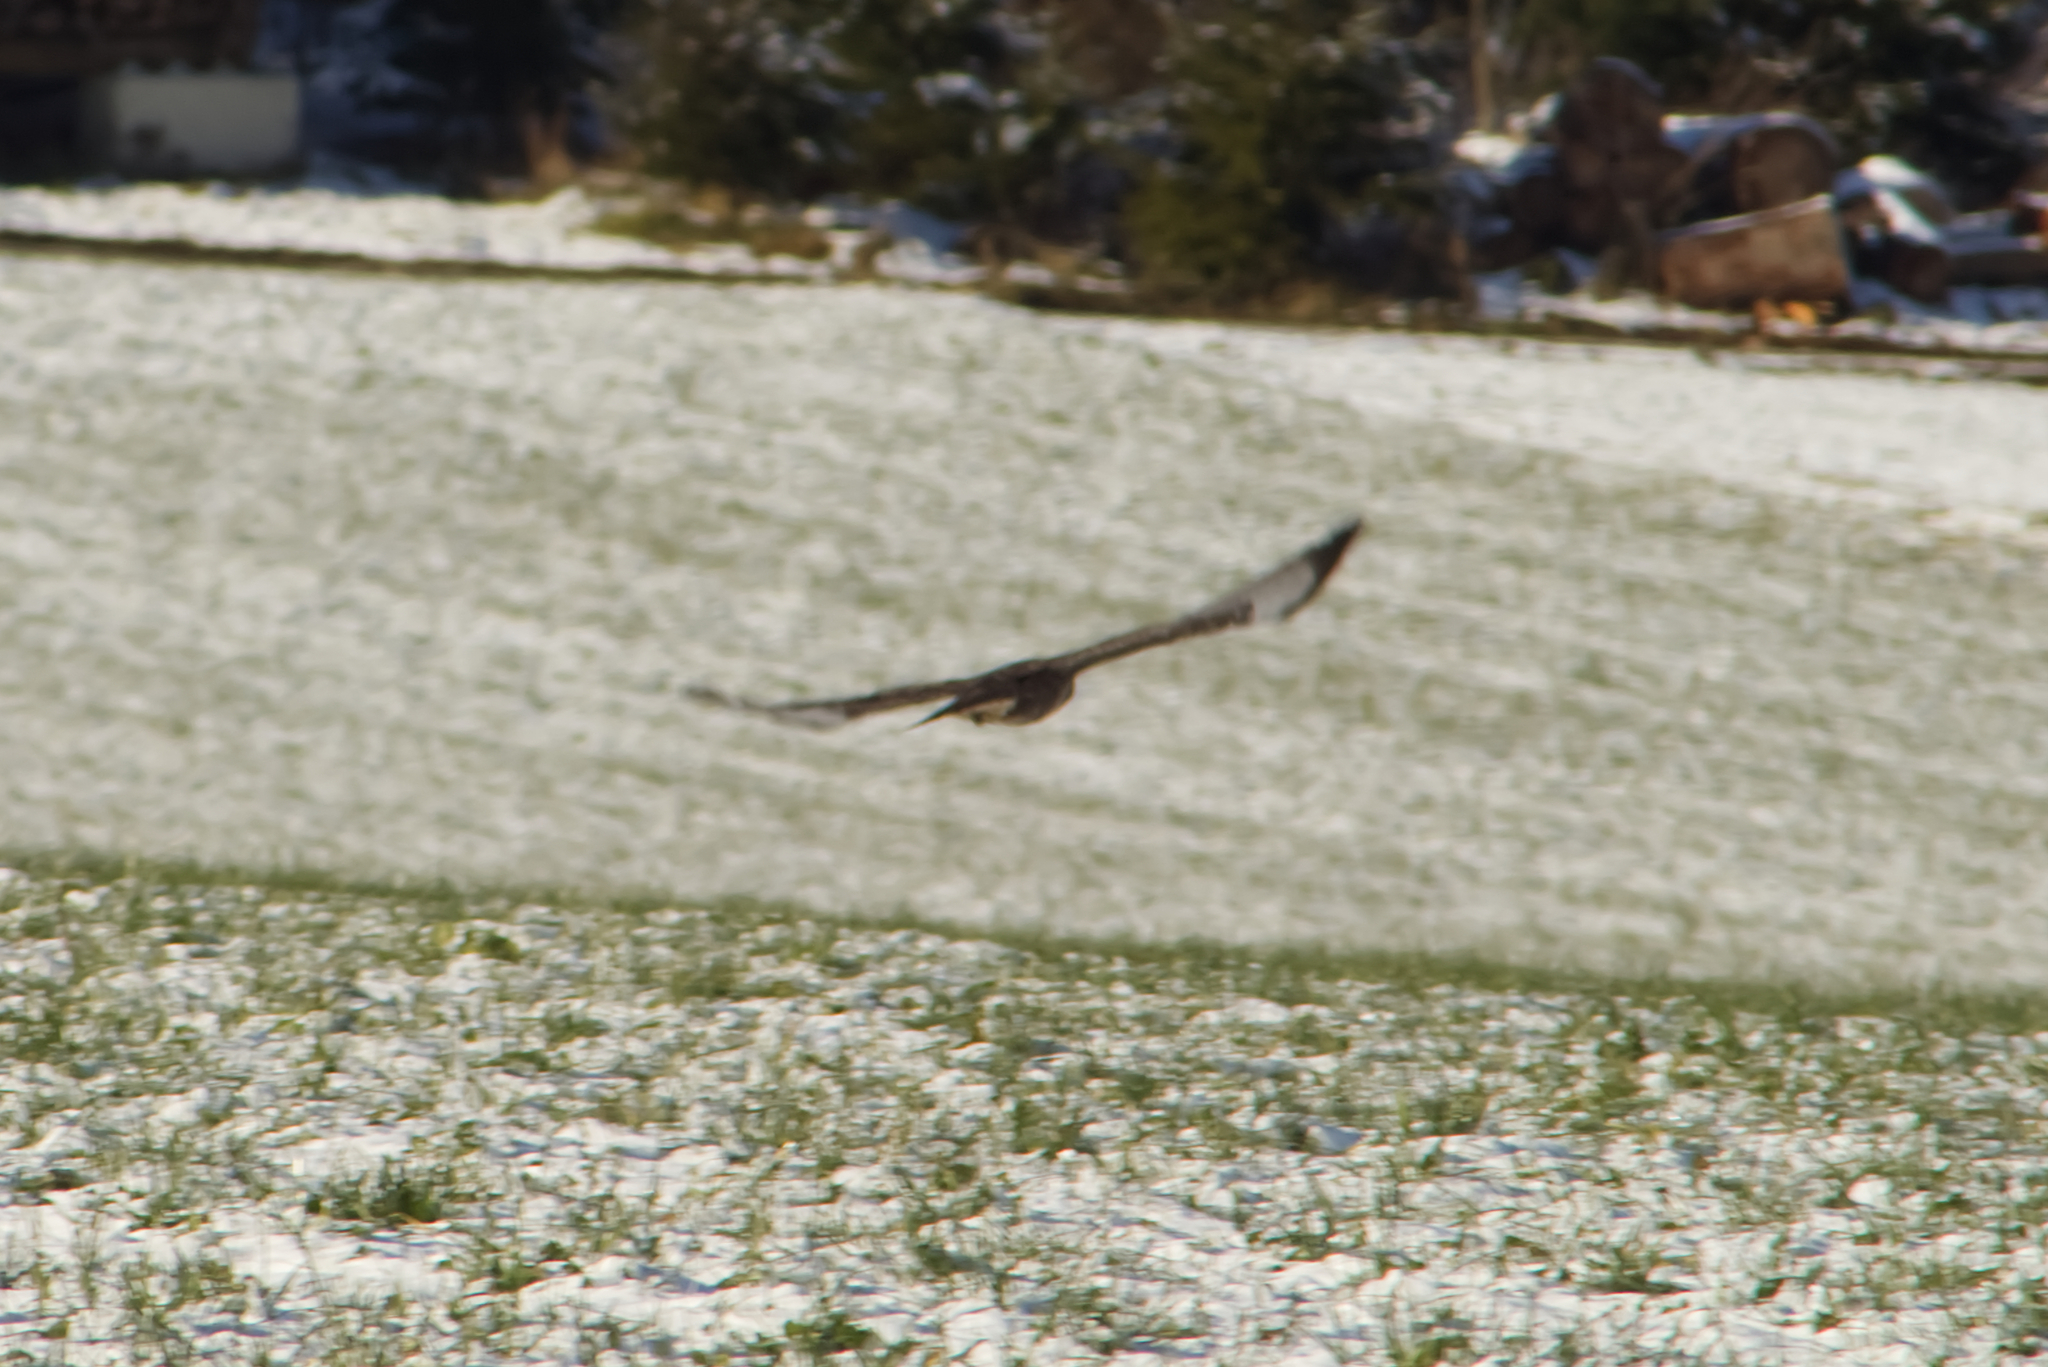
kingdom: Animalia
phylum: Chordata
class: Aves
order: Accipitriformes
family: Accipitridae
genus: Buteo
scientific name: Buteo buteo
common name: Common buzzard
